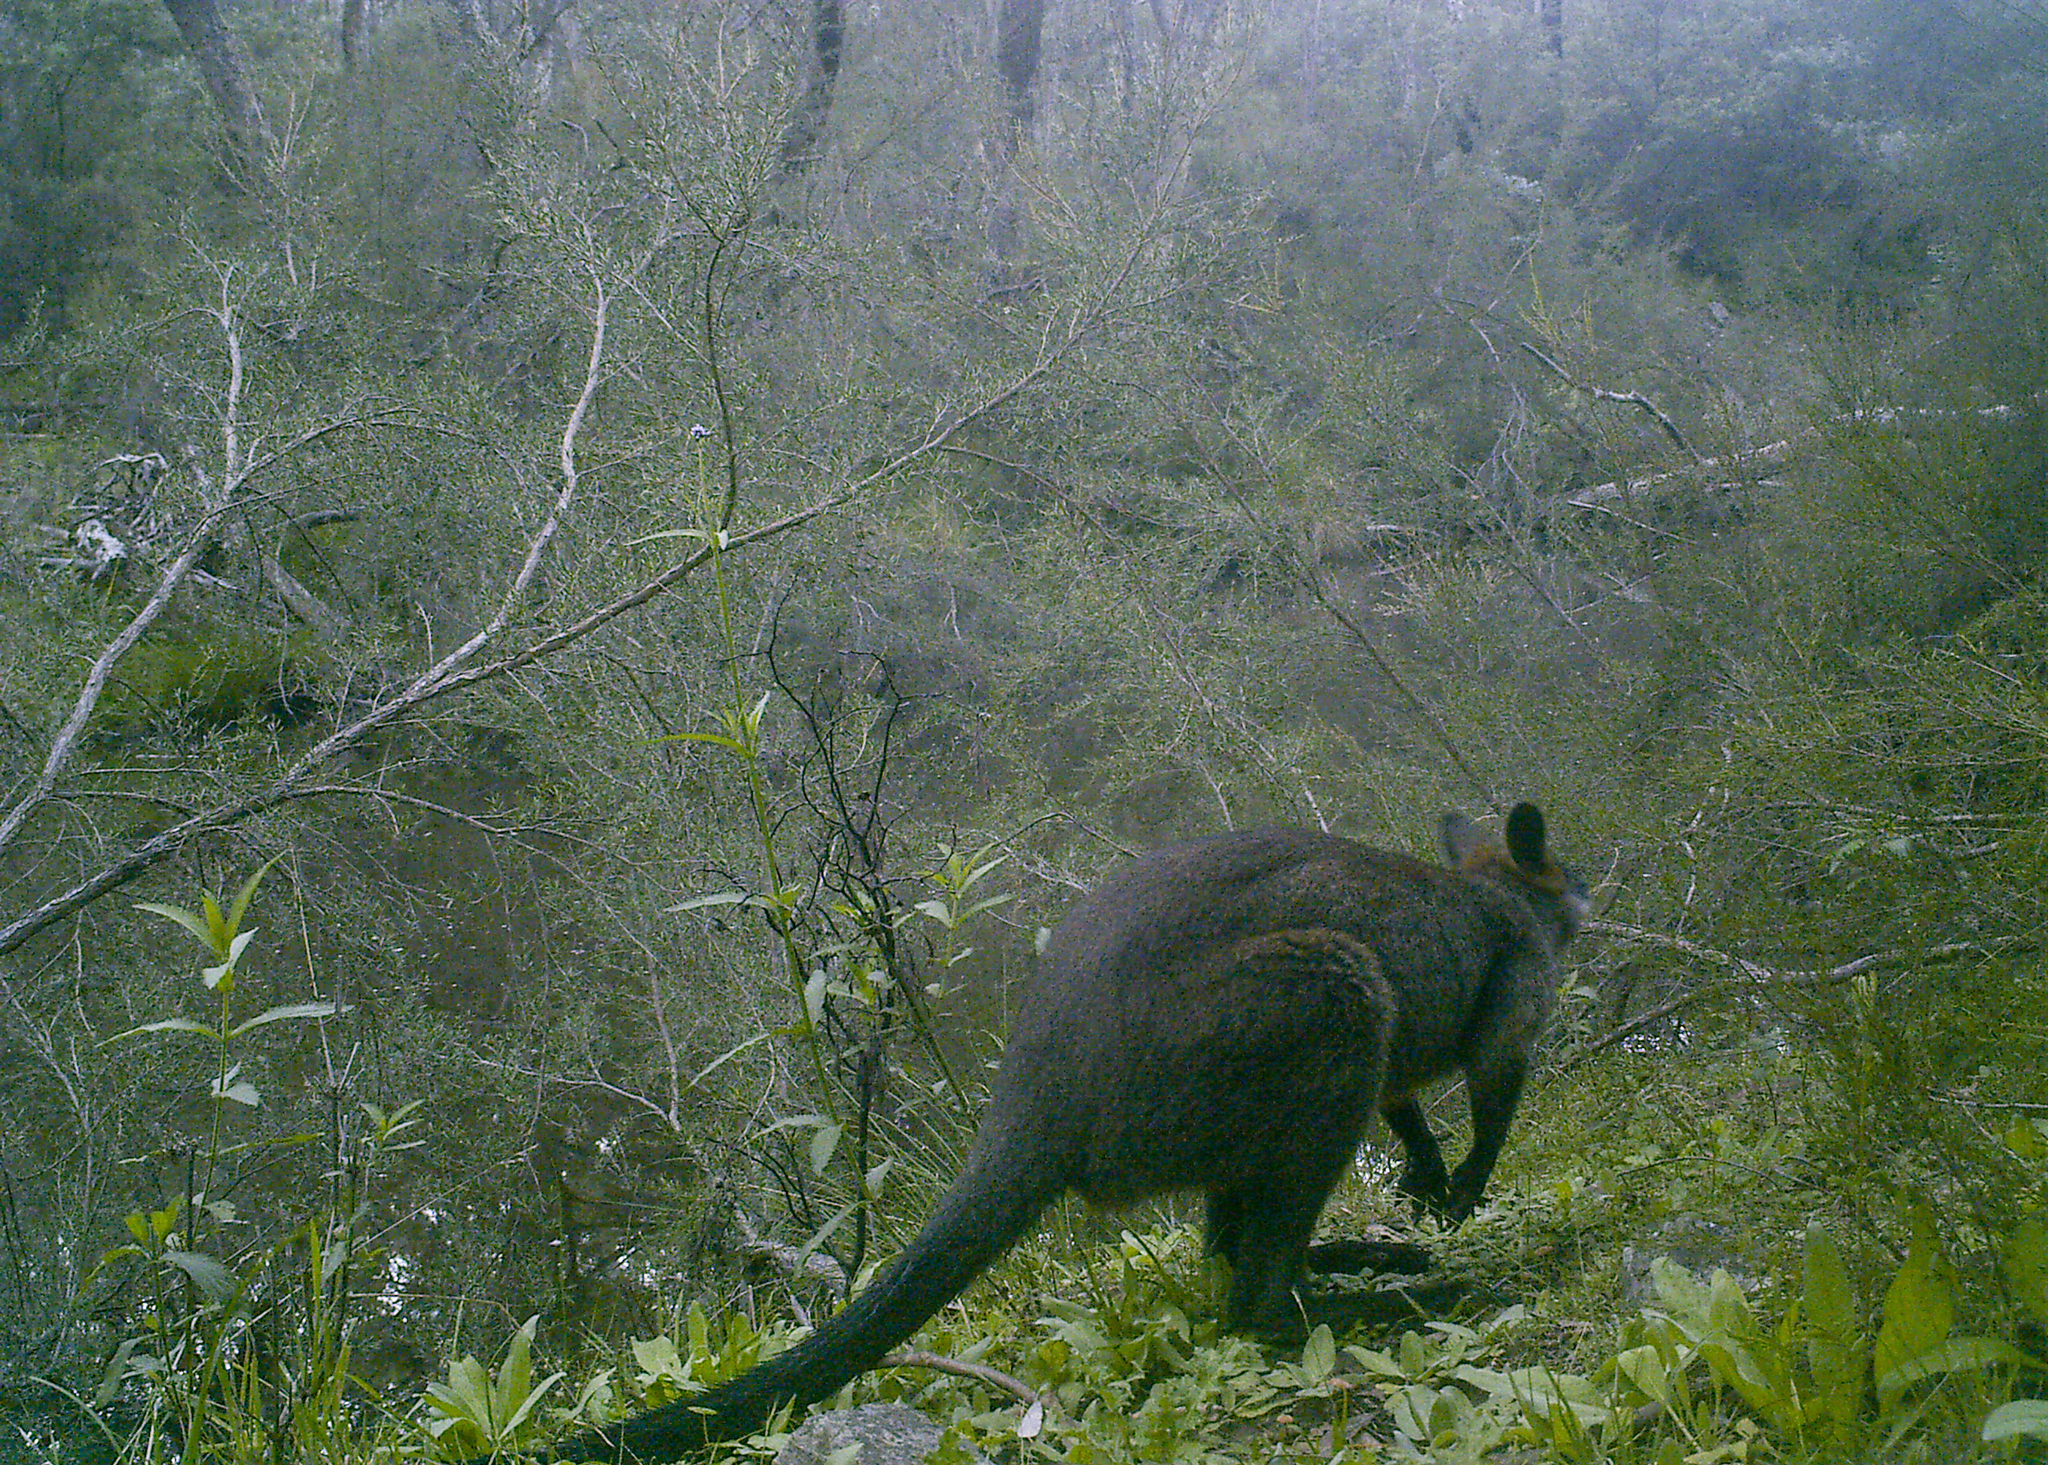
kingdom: Animalia
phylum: Chordata
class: Mammalia
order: Diprotodontia
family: Macropodidae
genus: Wallabia
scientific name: Wallabia bicolor
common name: Swamp wallaby
